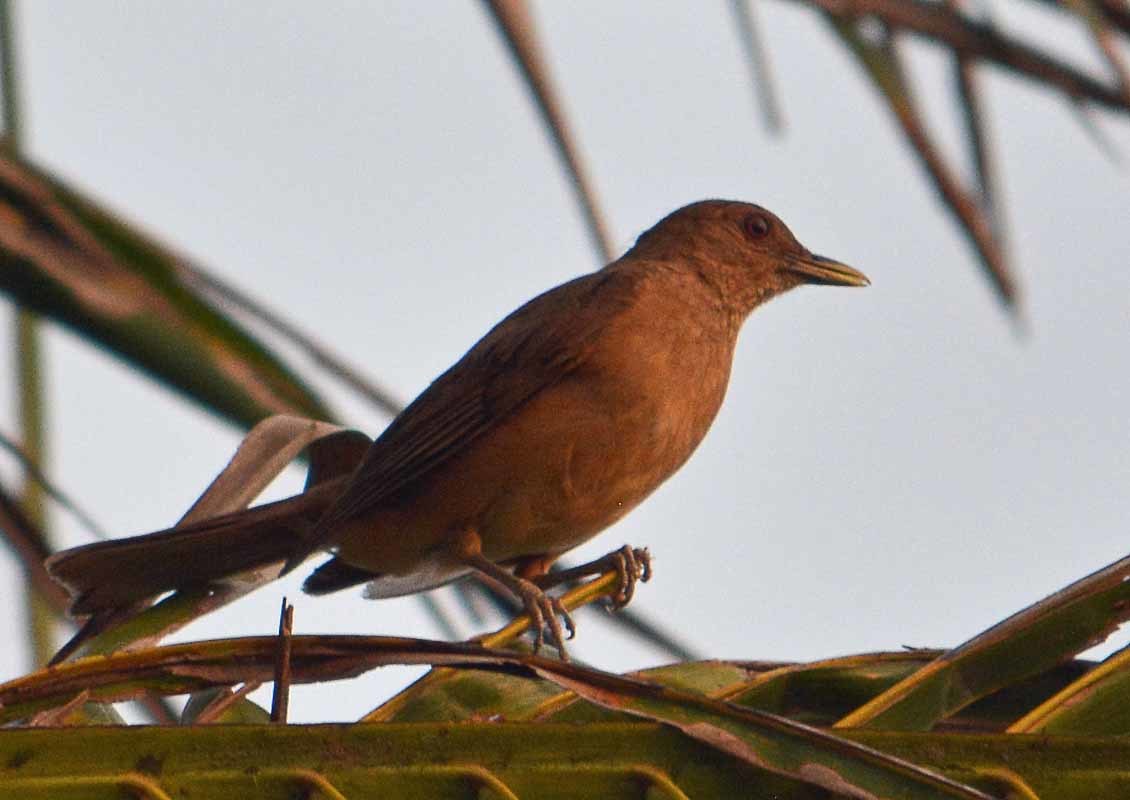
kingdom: Animalia
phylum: Chordata
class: Aves
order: Passeriformes
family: Turdidae
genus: Turdus
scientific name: Turdus grayi
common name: Clay-colored thrush
